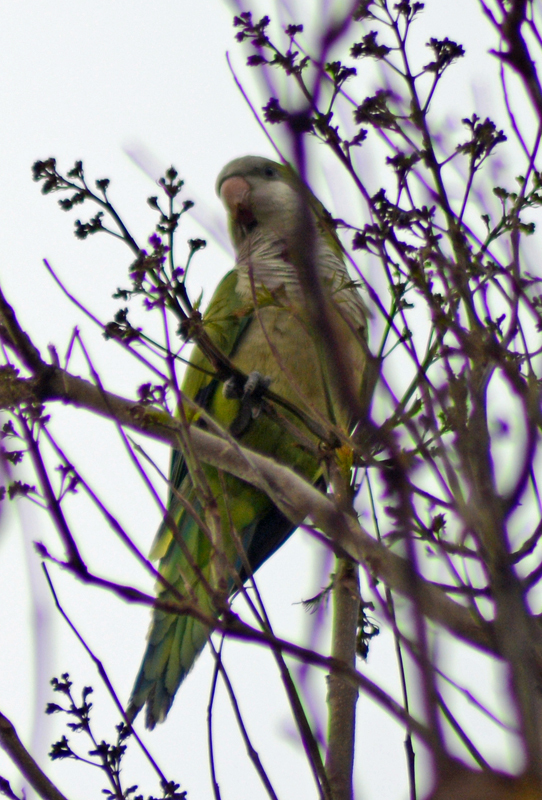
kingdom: Animalia
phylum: Chordata
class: Aves
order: Psittaciformes
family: Psittacidae
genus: Myiopsitta
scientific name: Myiopsitta monachus
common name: Monk parakeet
